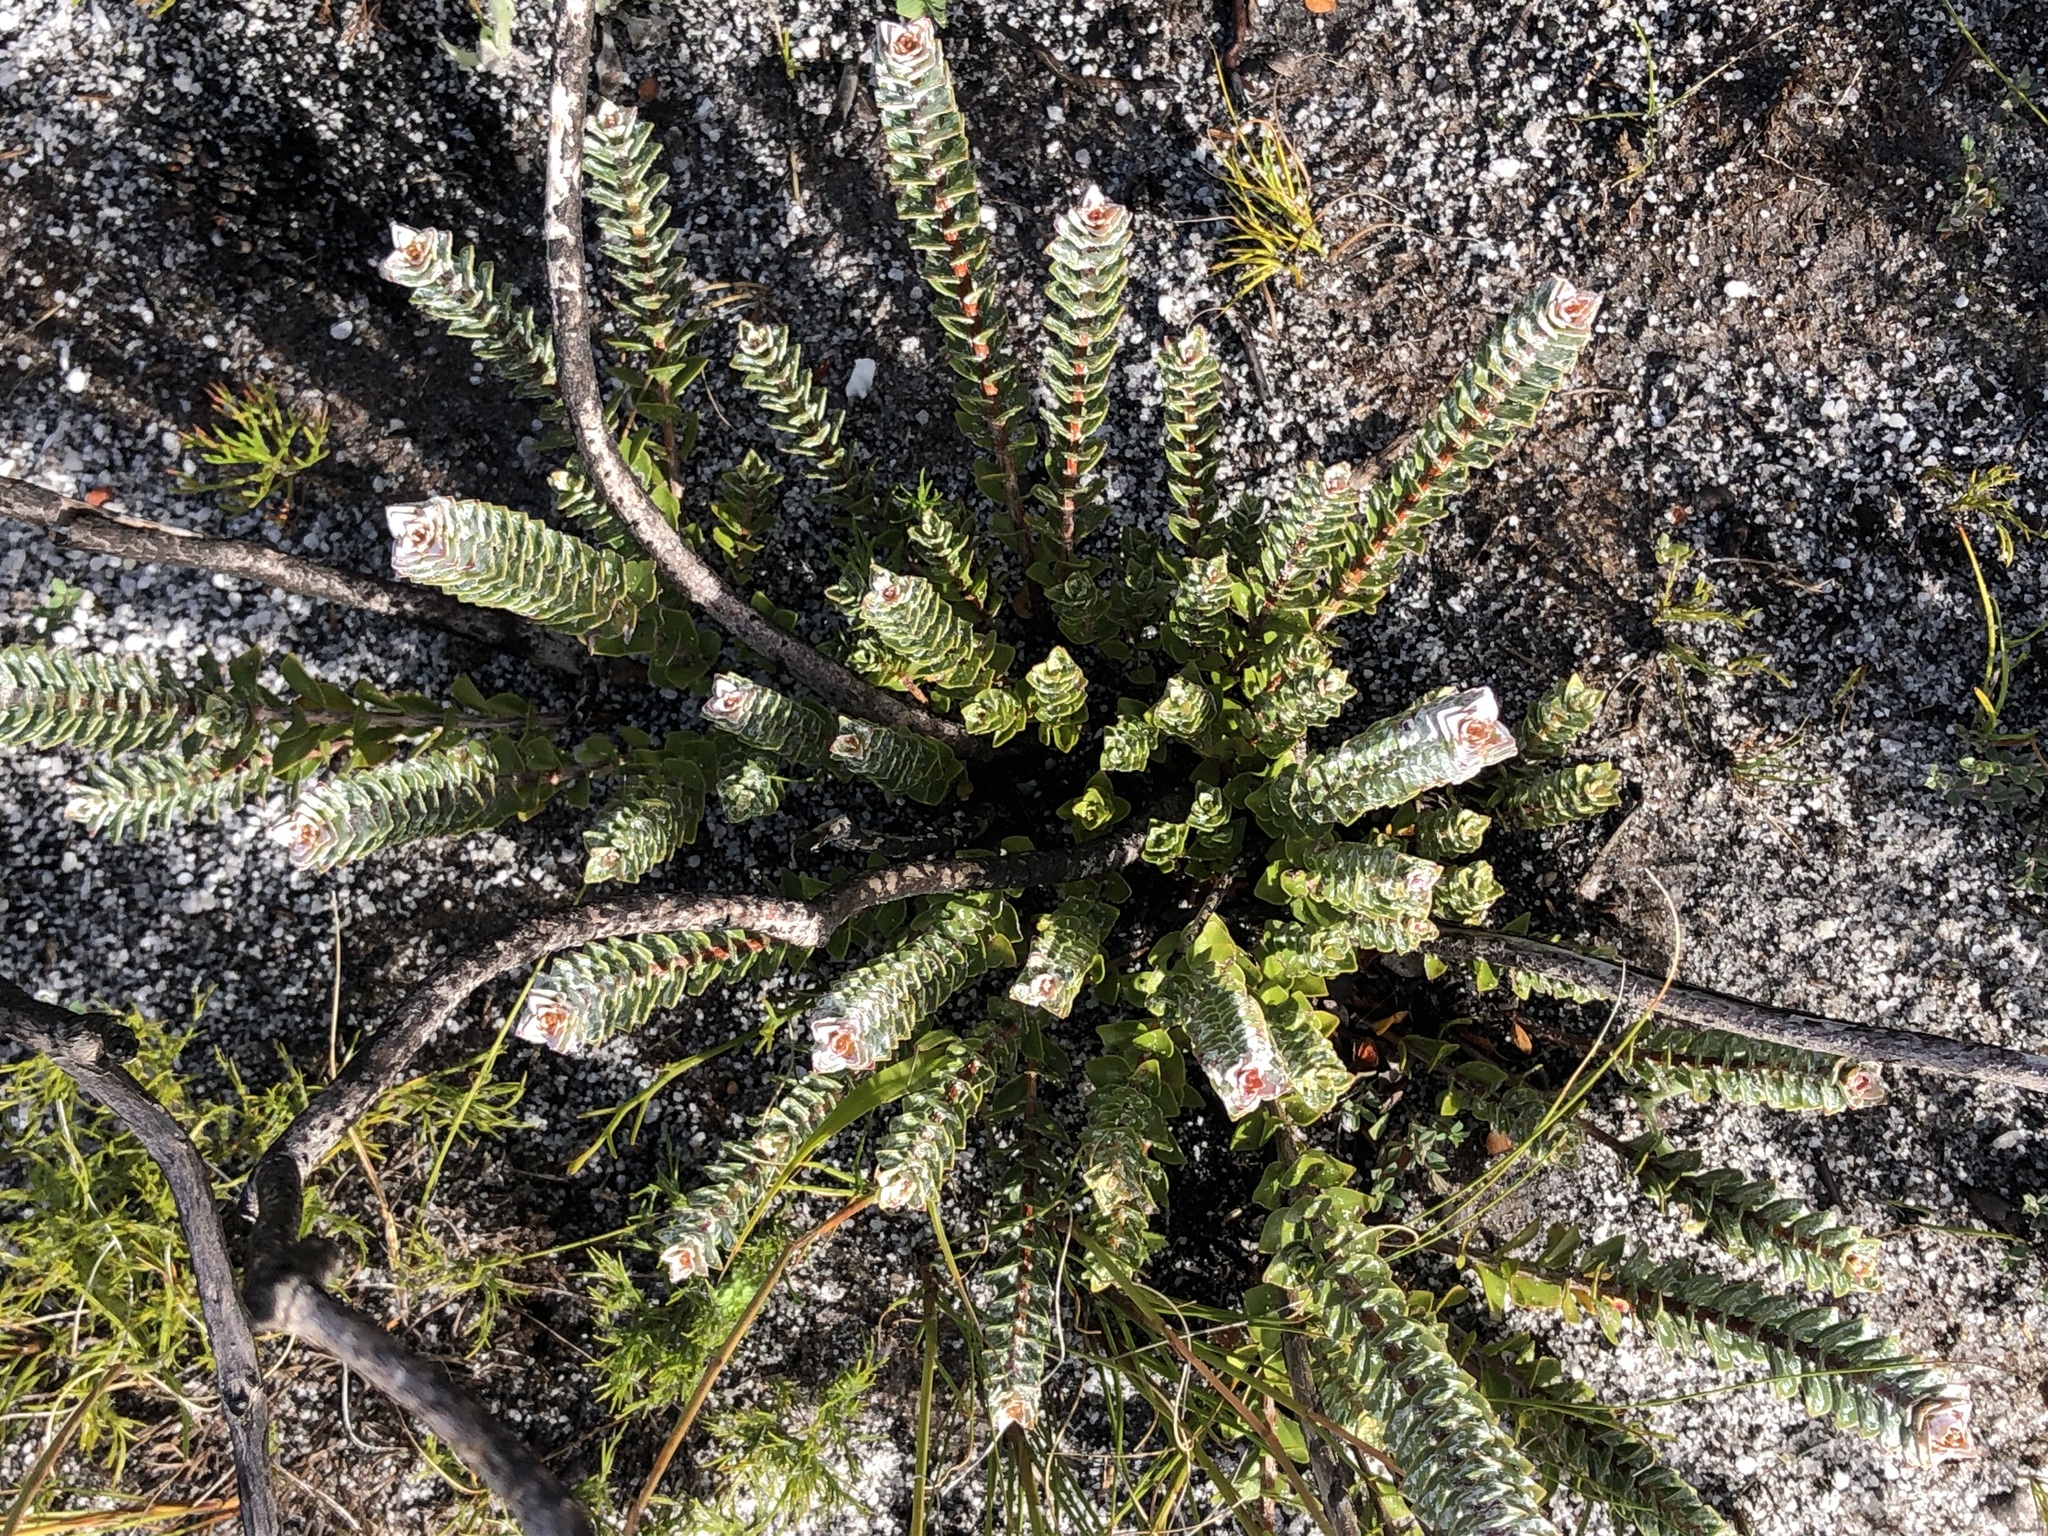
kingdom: Plantae
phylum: Tracheophyta
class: Magnoliopsida
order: Myrtales
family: Penaeaceae
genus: Saltera
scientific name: Saltera sarcocolla
